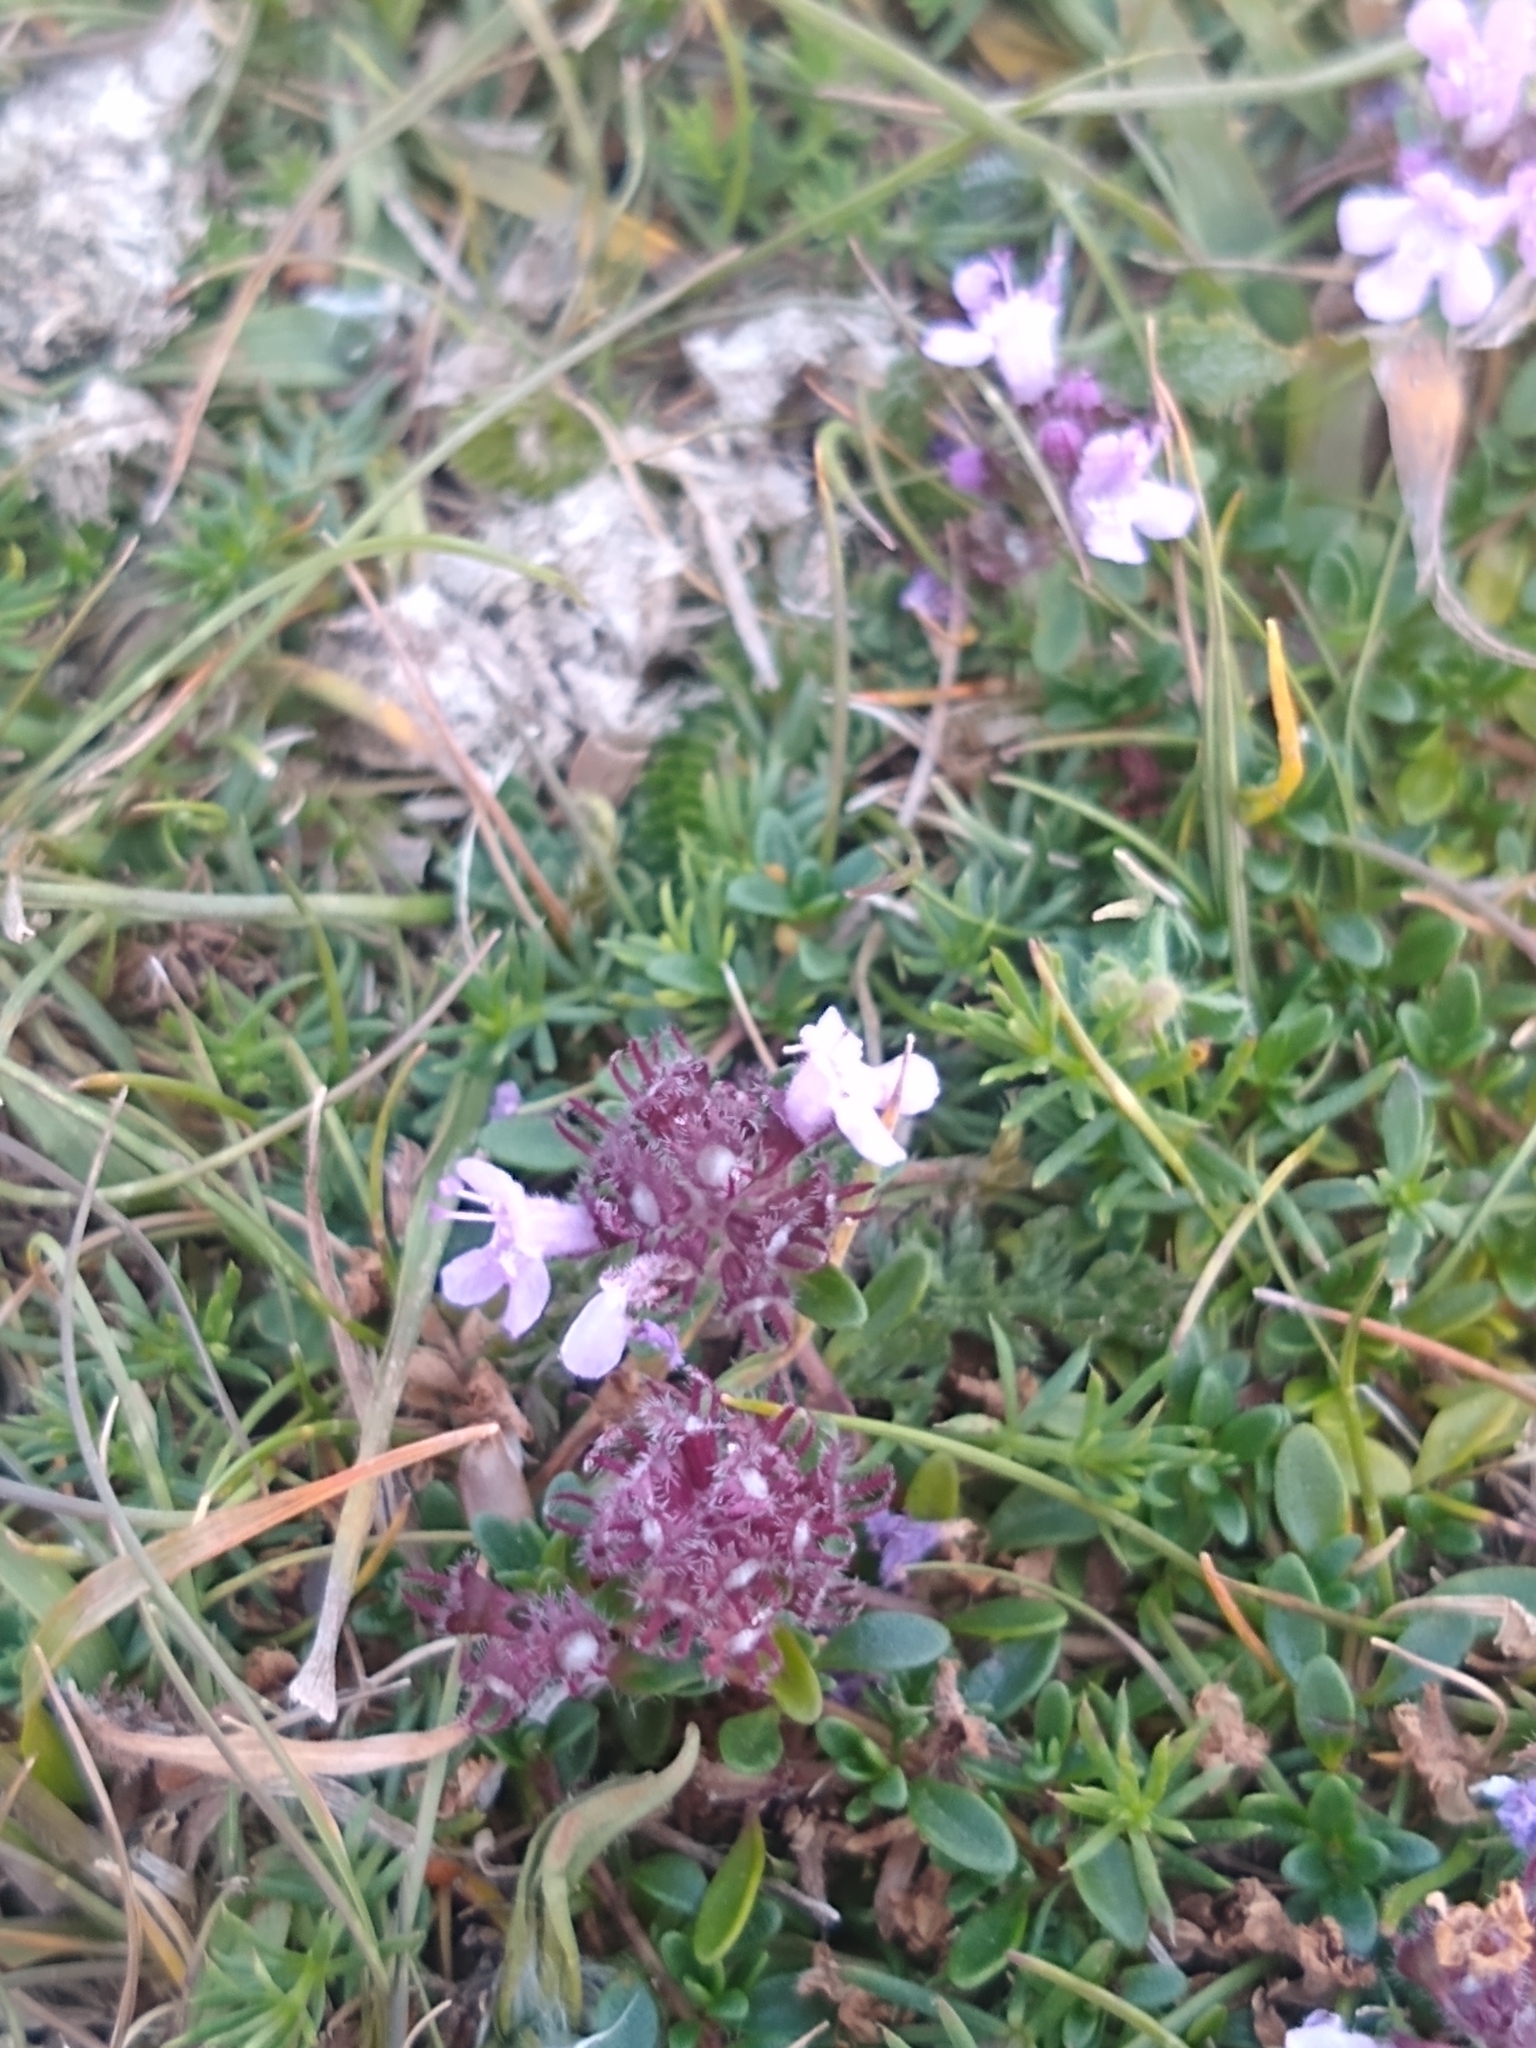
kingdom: Plantae
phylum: Tracheophyta
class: Magnoliopsida
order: Lamiales
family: Lamiaceae
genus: Thymus
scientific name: Thymus praecox
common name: Wild thyme
